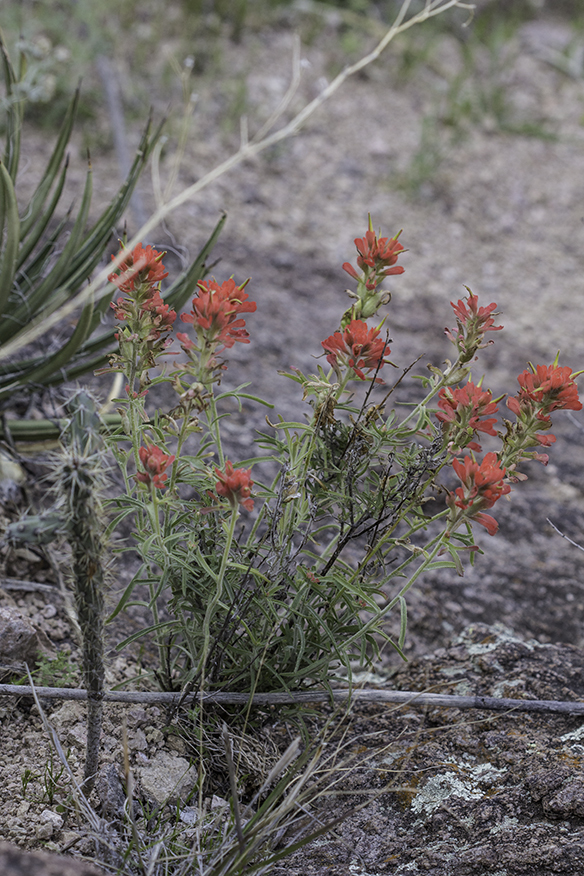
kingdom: Plantae
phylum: Tracheophyta
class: Magnoliopsida
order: Lamiales
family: Orobanchaceae
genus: Castilleja
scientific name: Castilleja lanata
